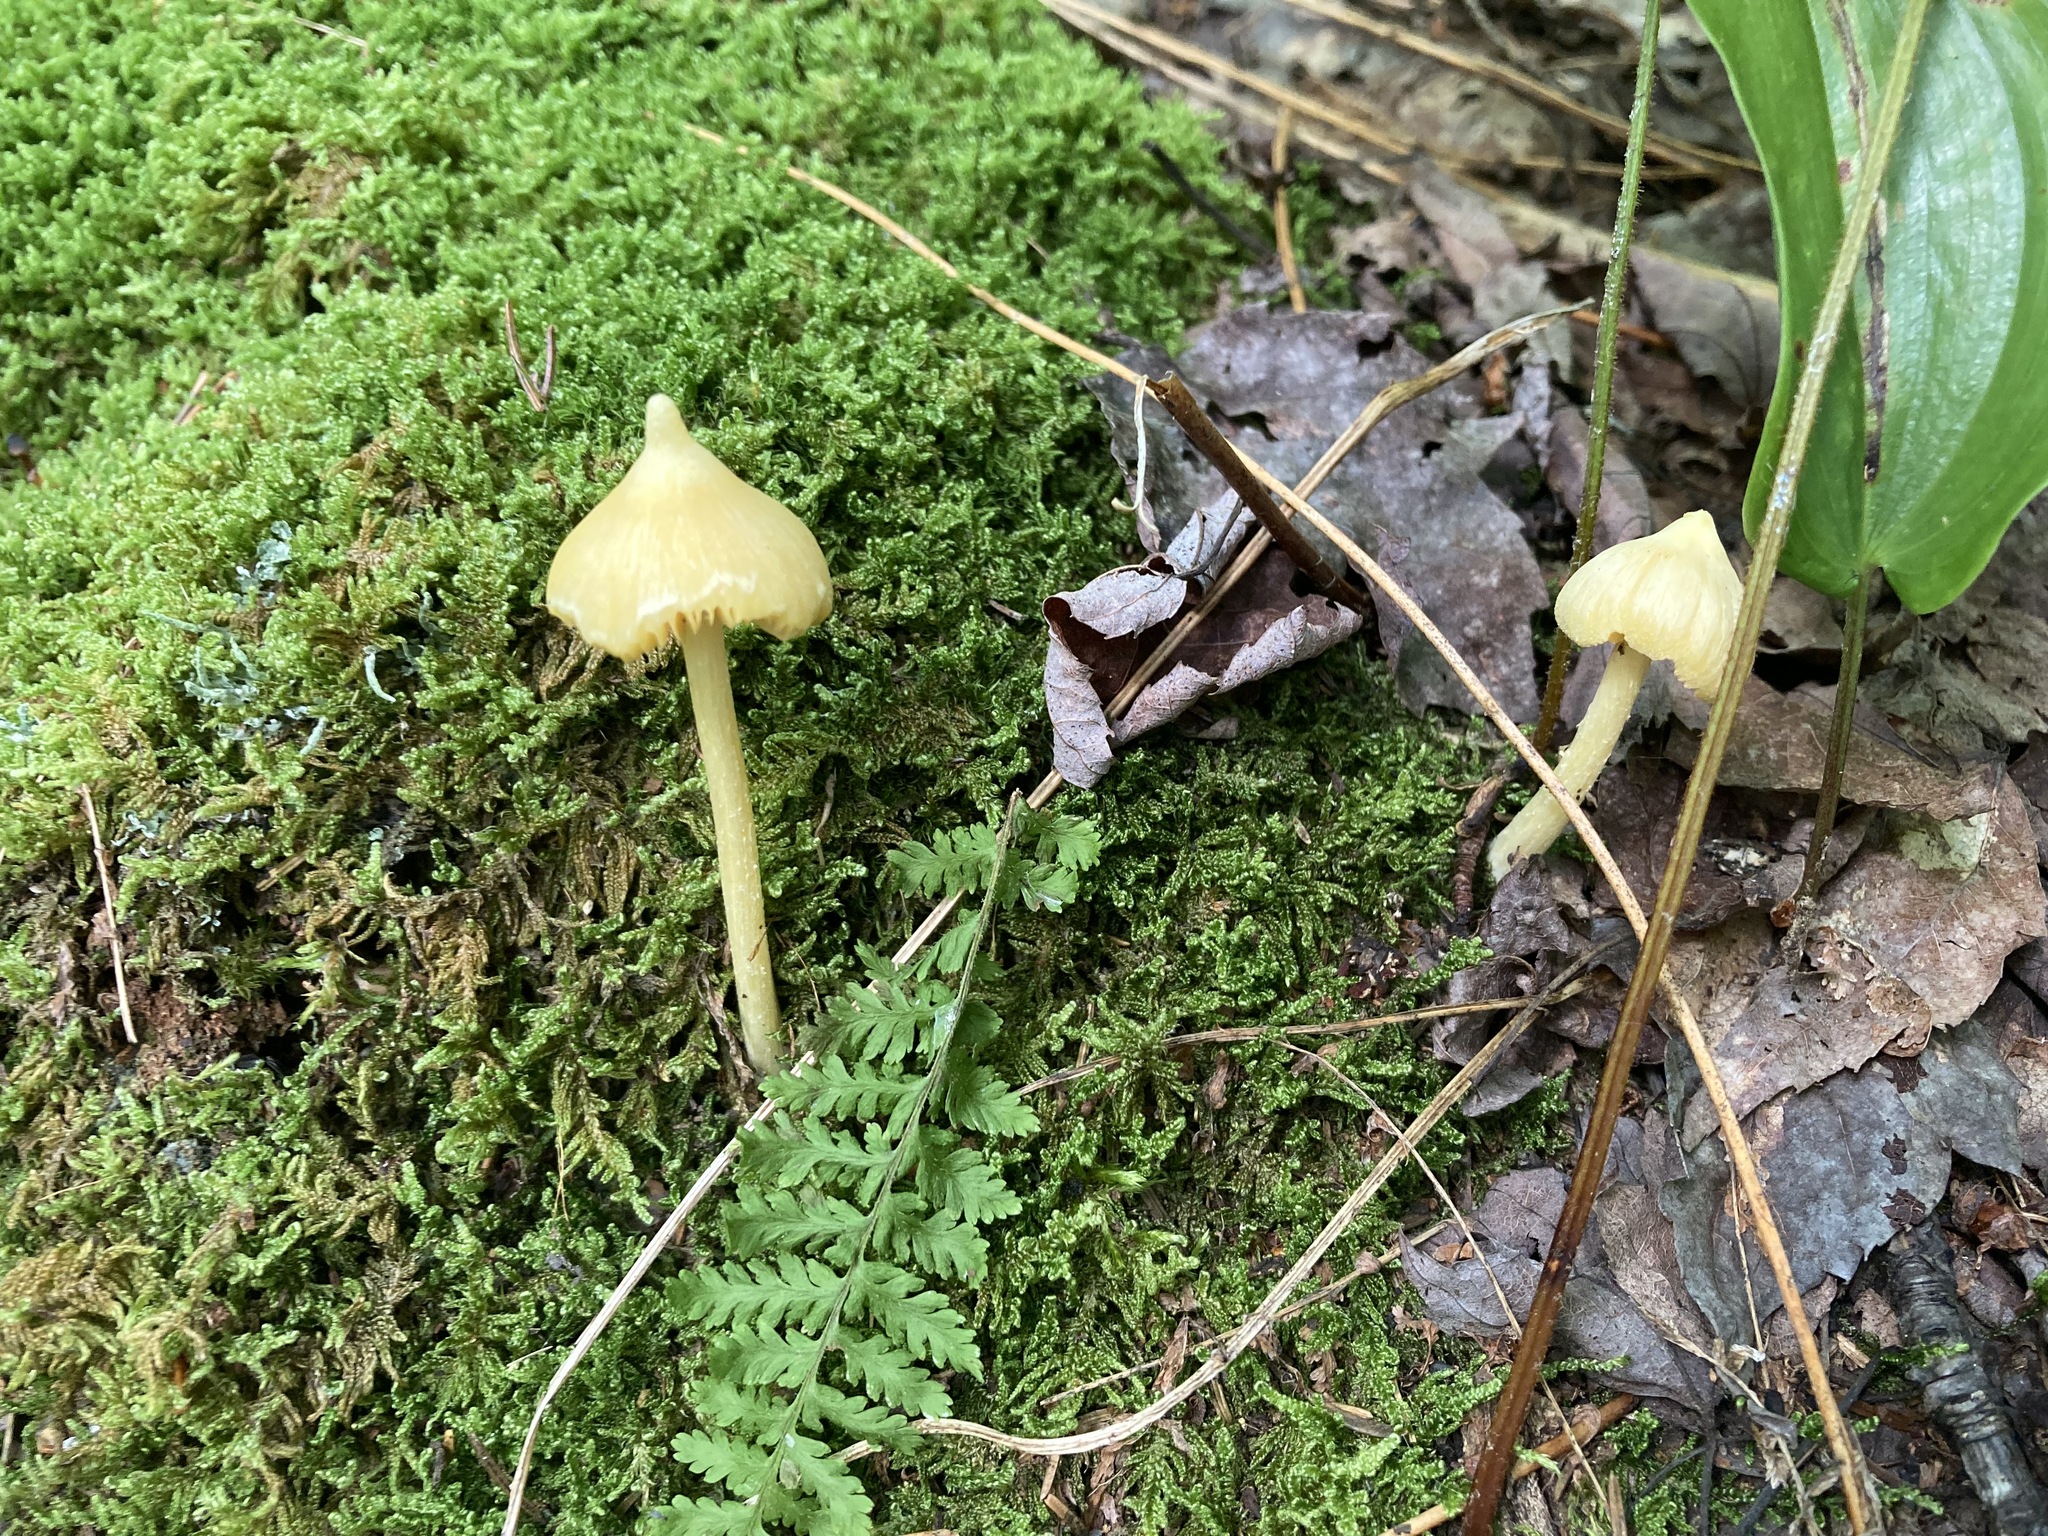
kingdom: Fungi
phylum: Basidiomycota
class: Agaricomycetes
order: Agaricales
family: Entolomataceae
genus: Entoloma
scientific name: Entoloma murrayi
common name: Yellow unicorn entoloma
